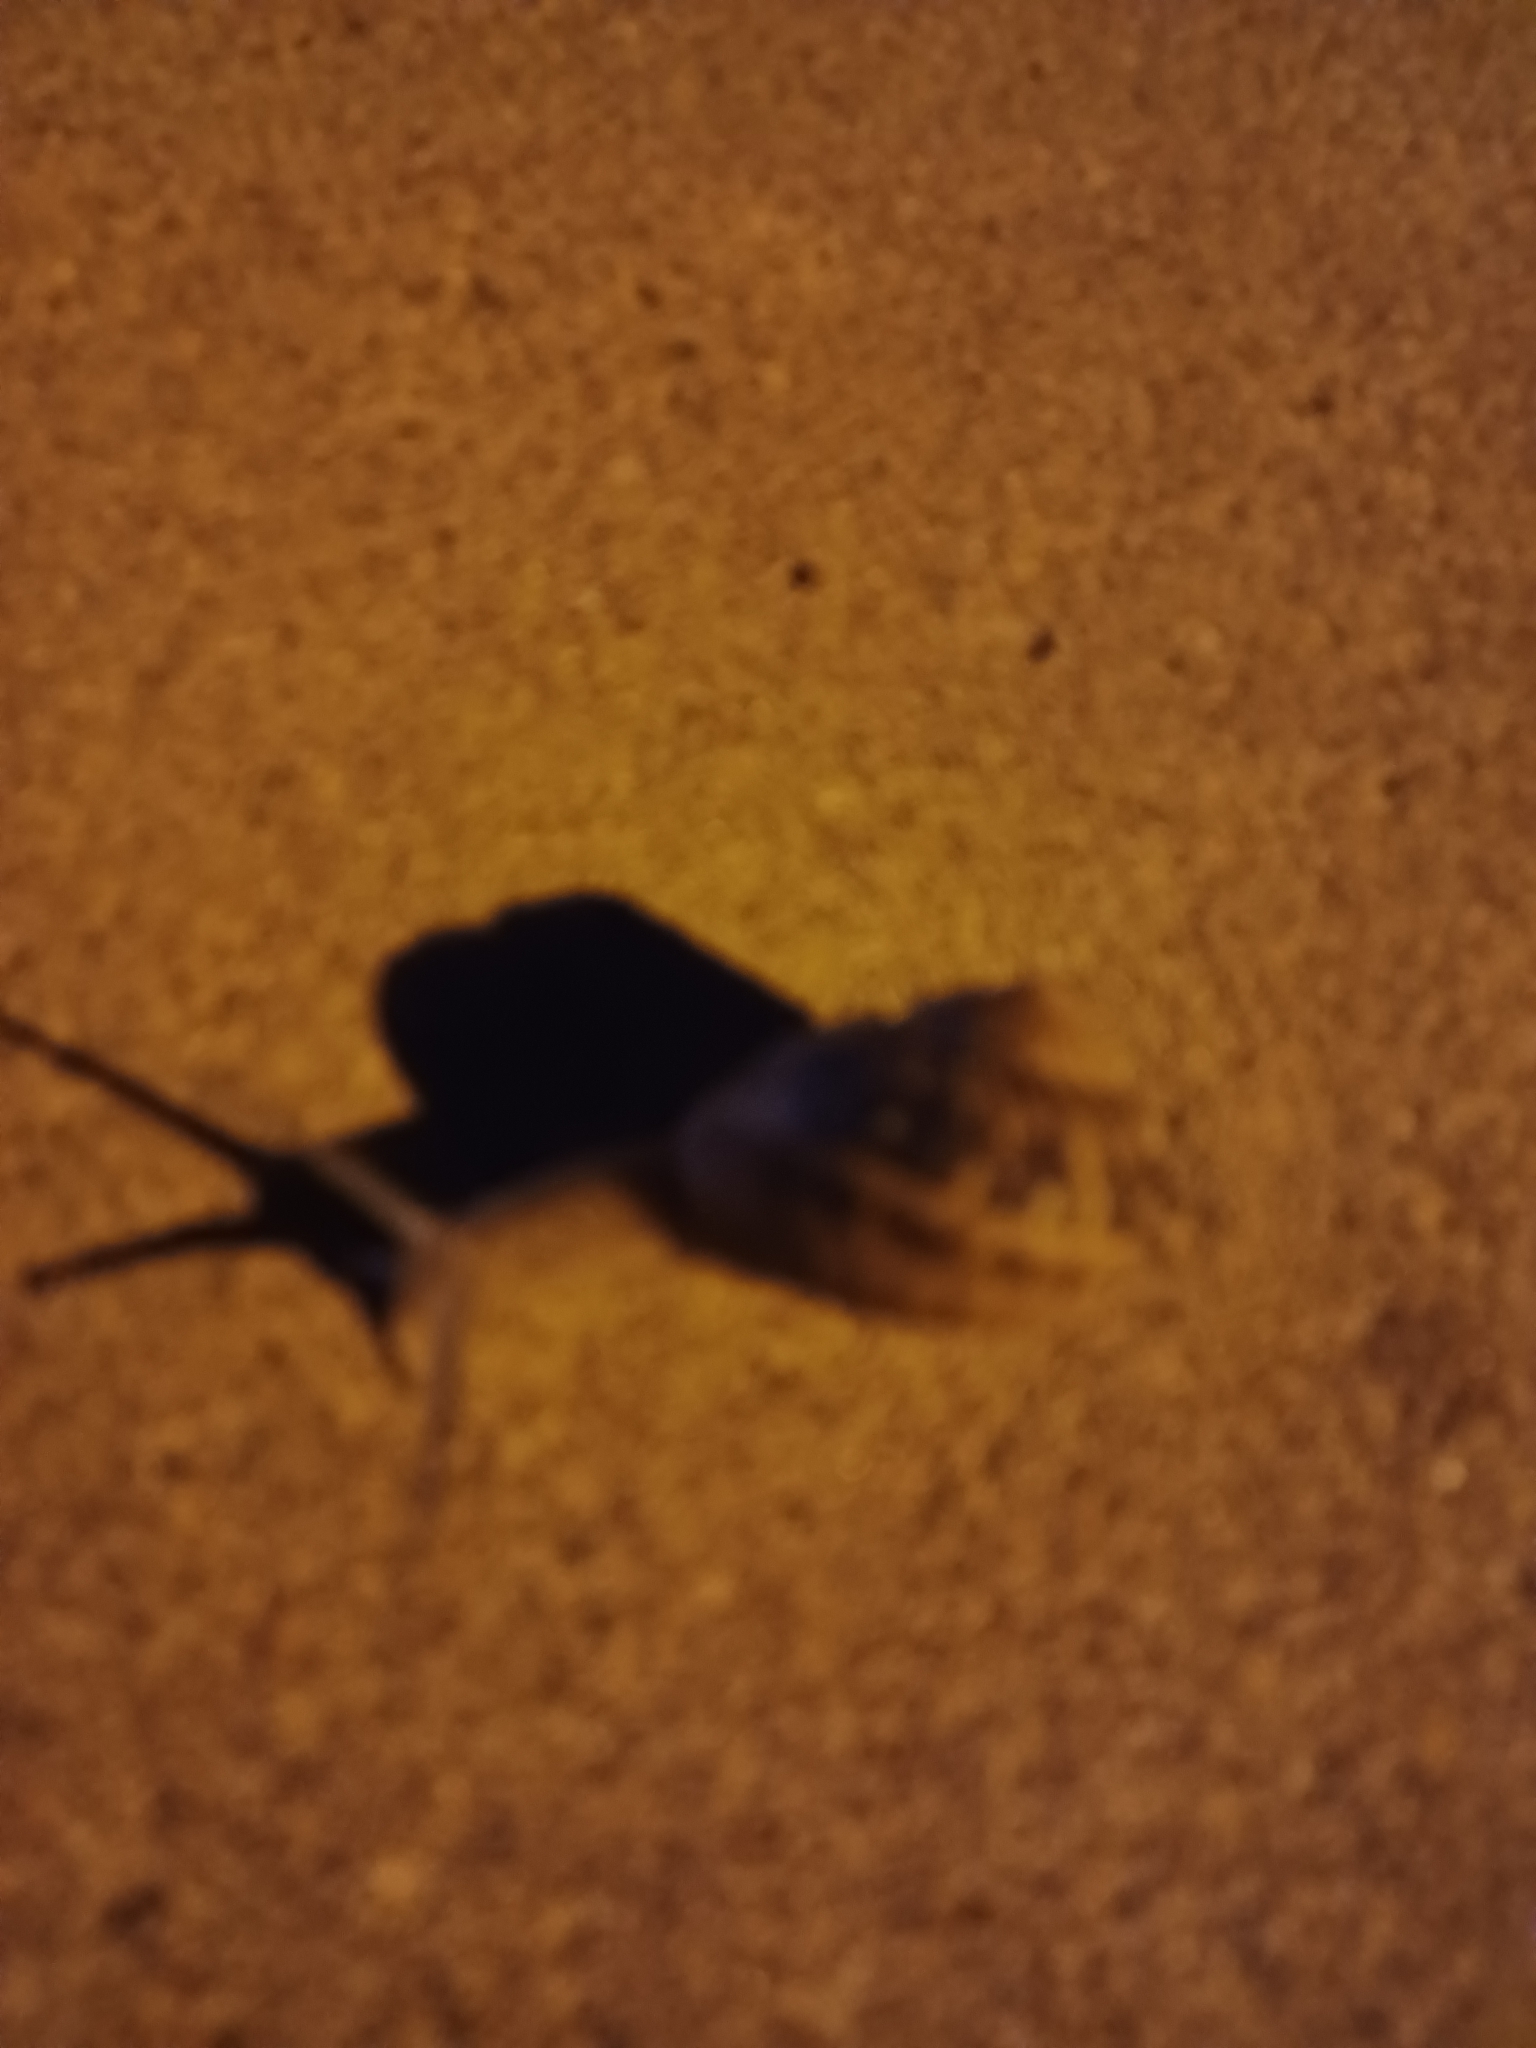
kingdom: Animalia
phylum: Mollusca
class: Gastropoda
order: Stylommatophora
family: Helicidae
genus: Cornu
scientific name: Cornu aspersum
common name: Brown garden snail
